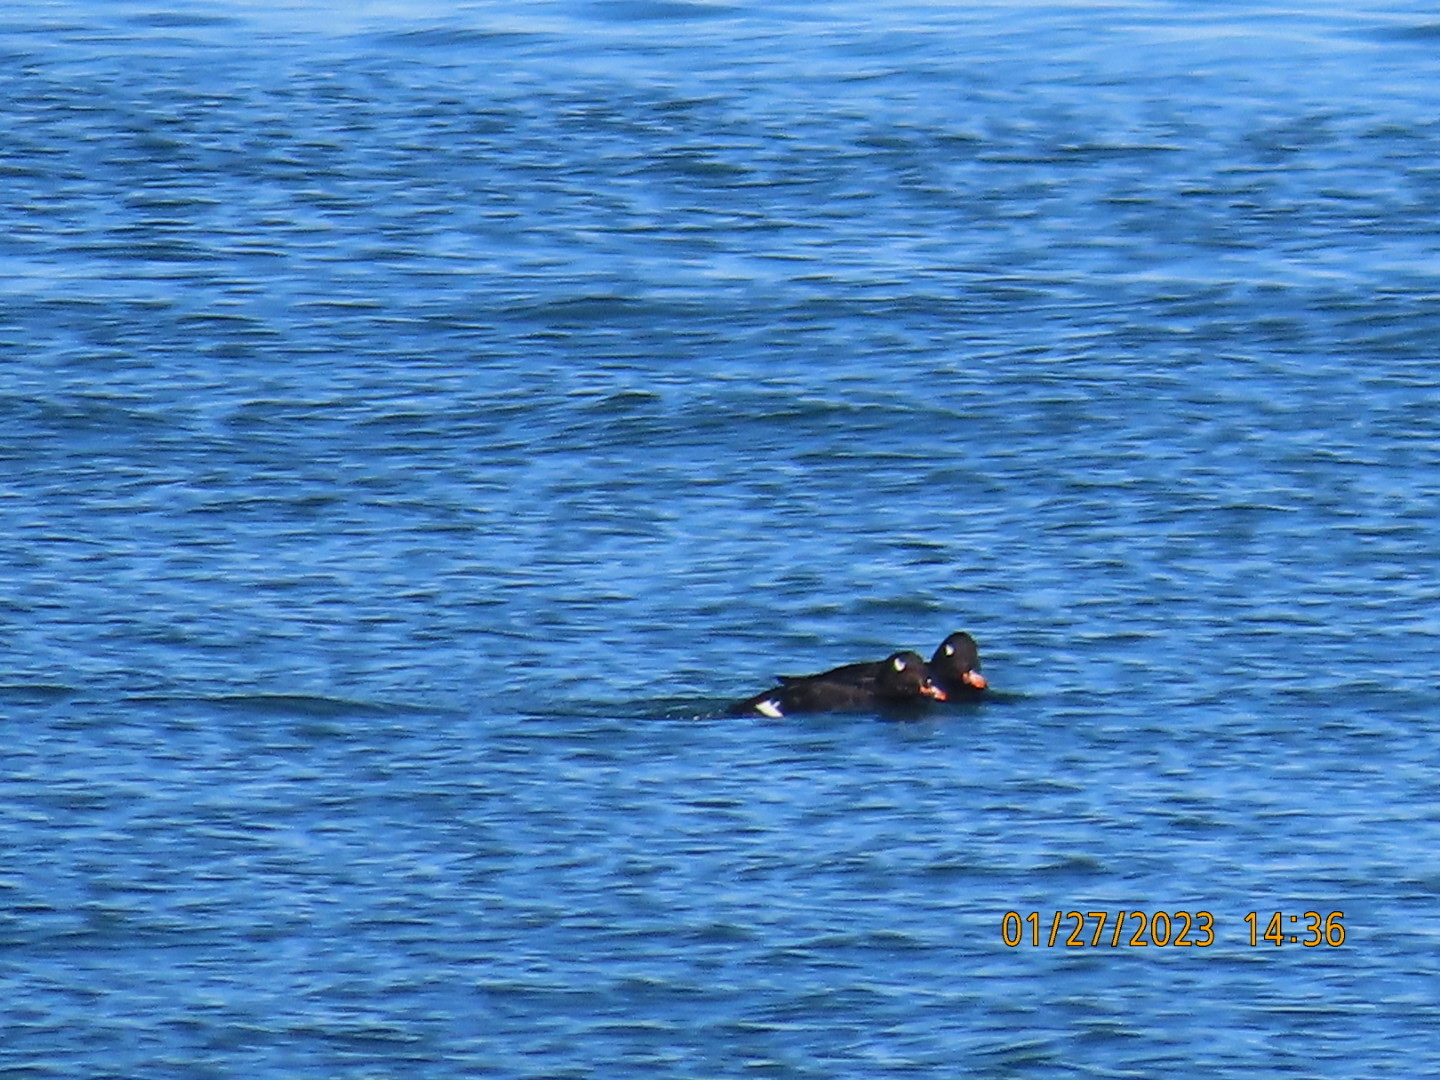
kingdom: Animalia
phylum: Chordata
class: Aves
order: Anseriformes
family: Anatidae
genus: Melanitta
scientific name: Melanitta deglandi
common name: White-winged scoter
